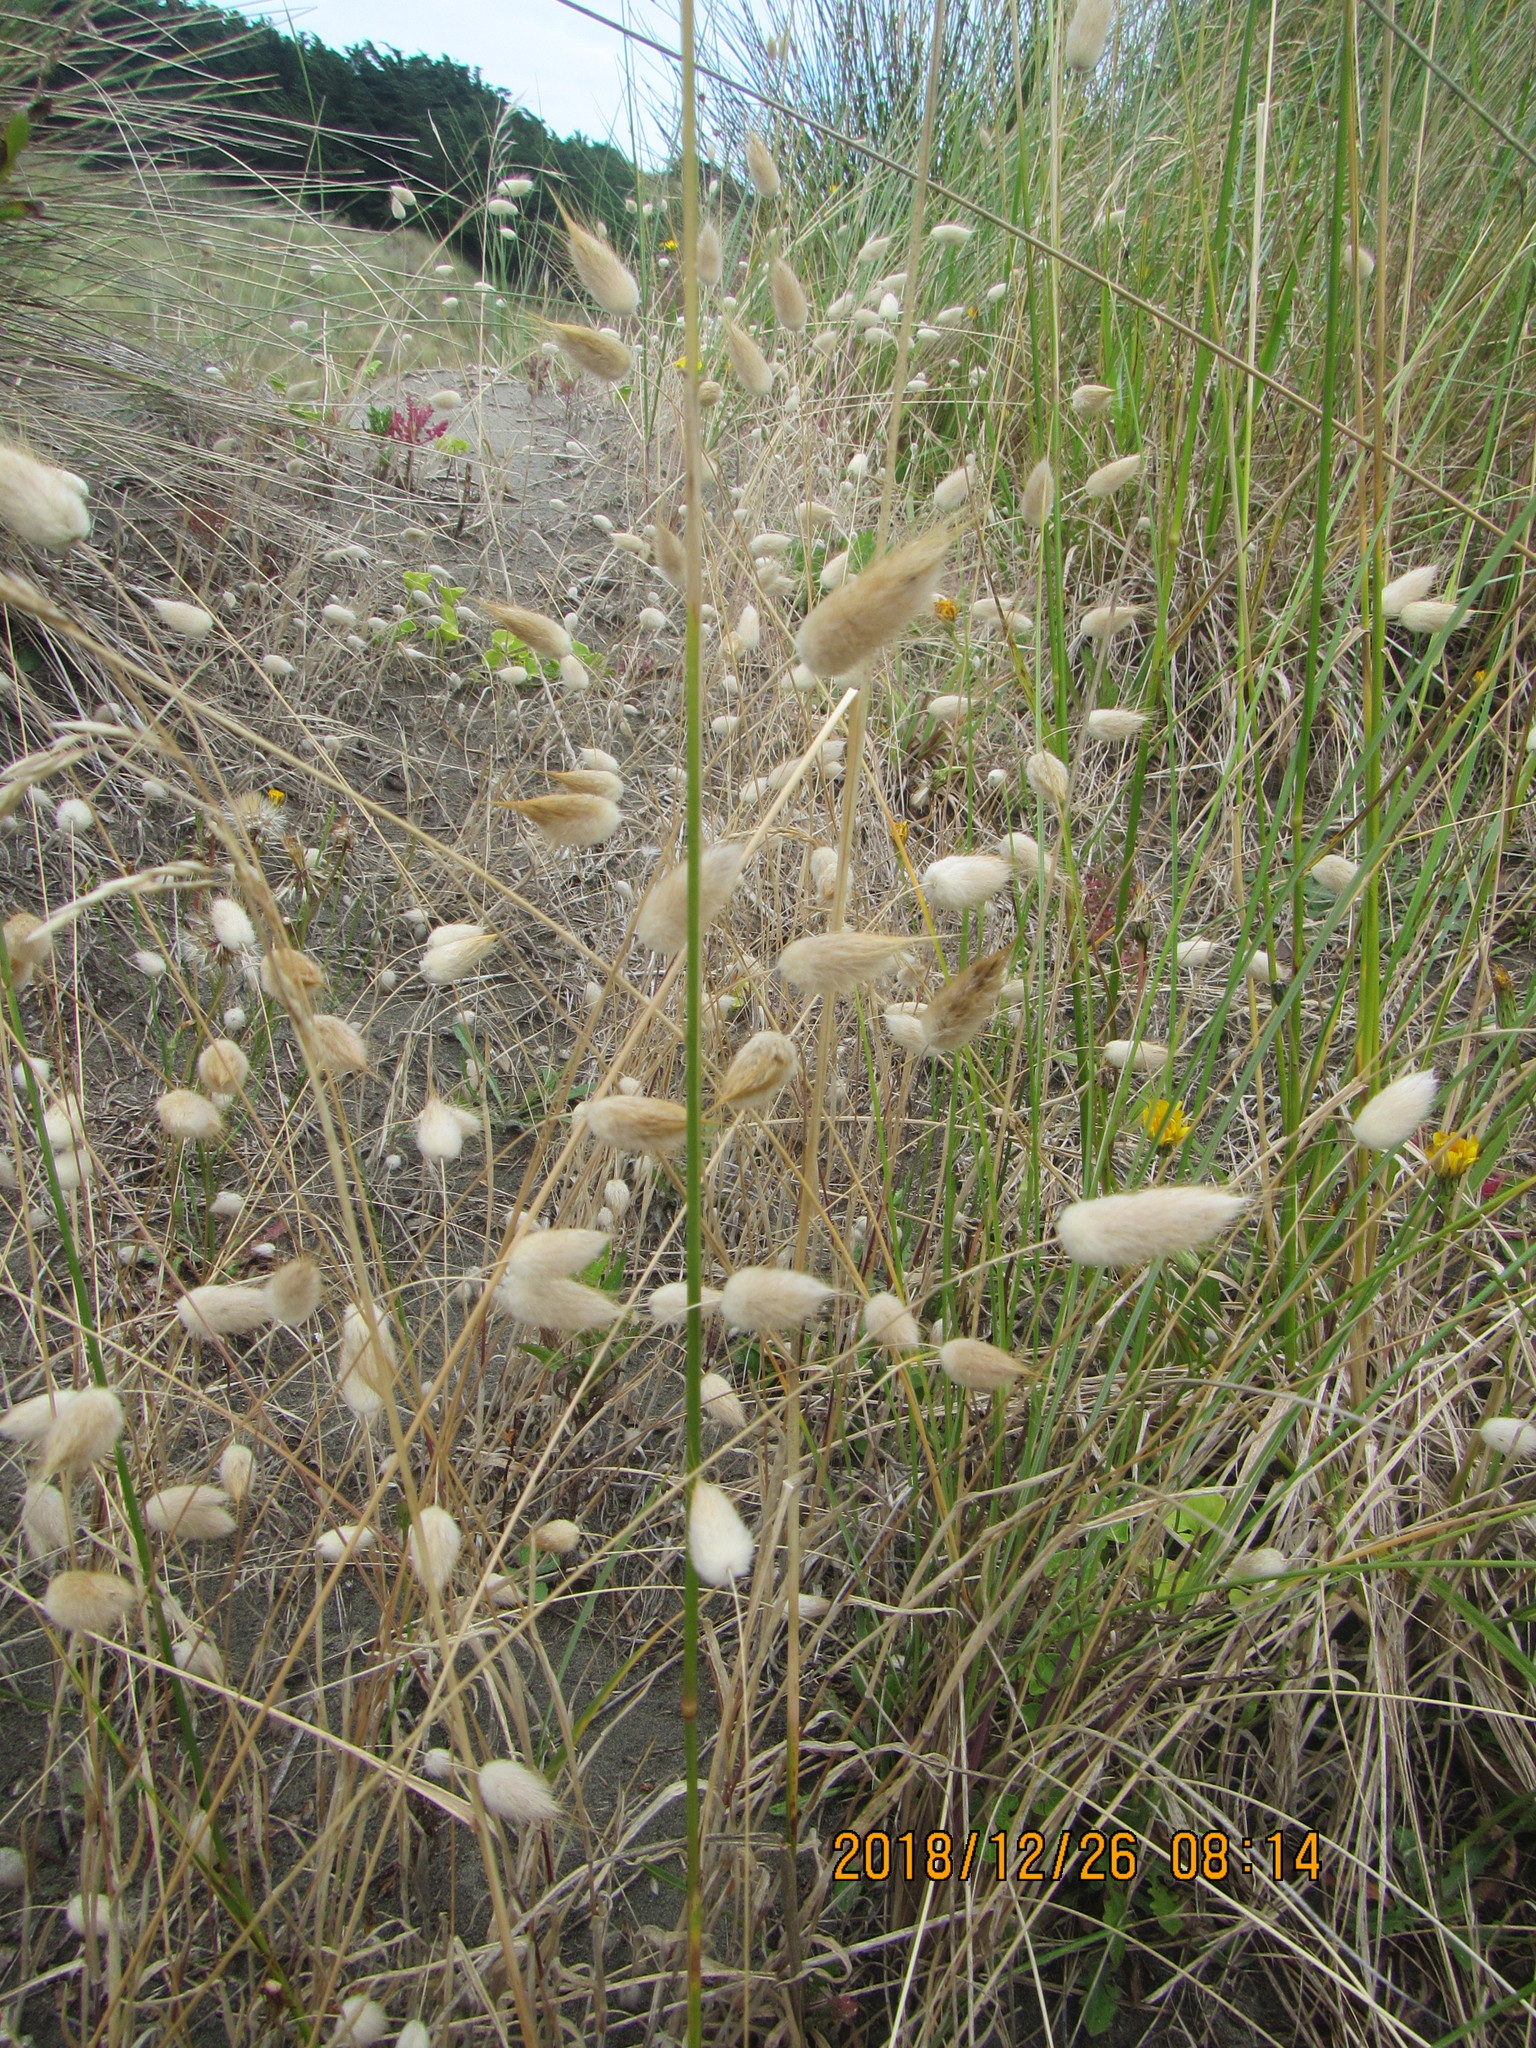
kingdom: Plantae
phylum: Tracheophyta
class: Liliopsida
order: Poales
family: Poaceae
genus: Lagurus
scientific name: Lagurus ovatus
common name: Hare's-tail
